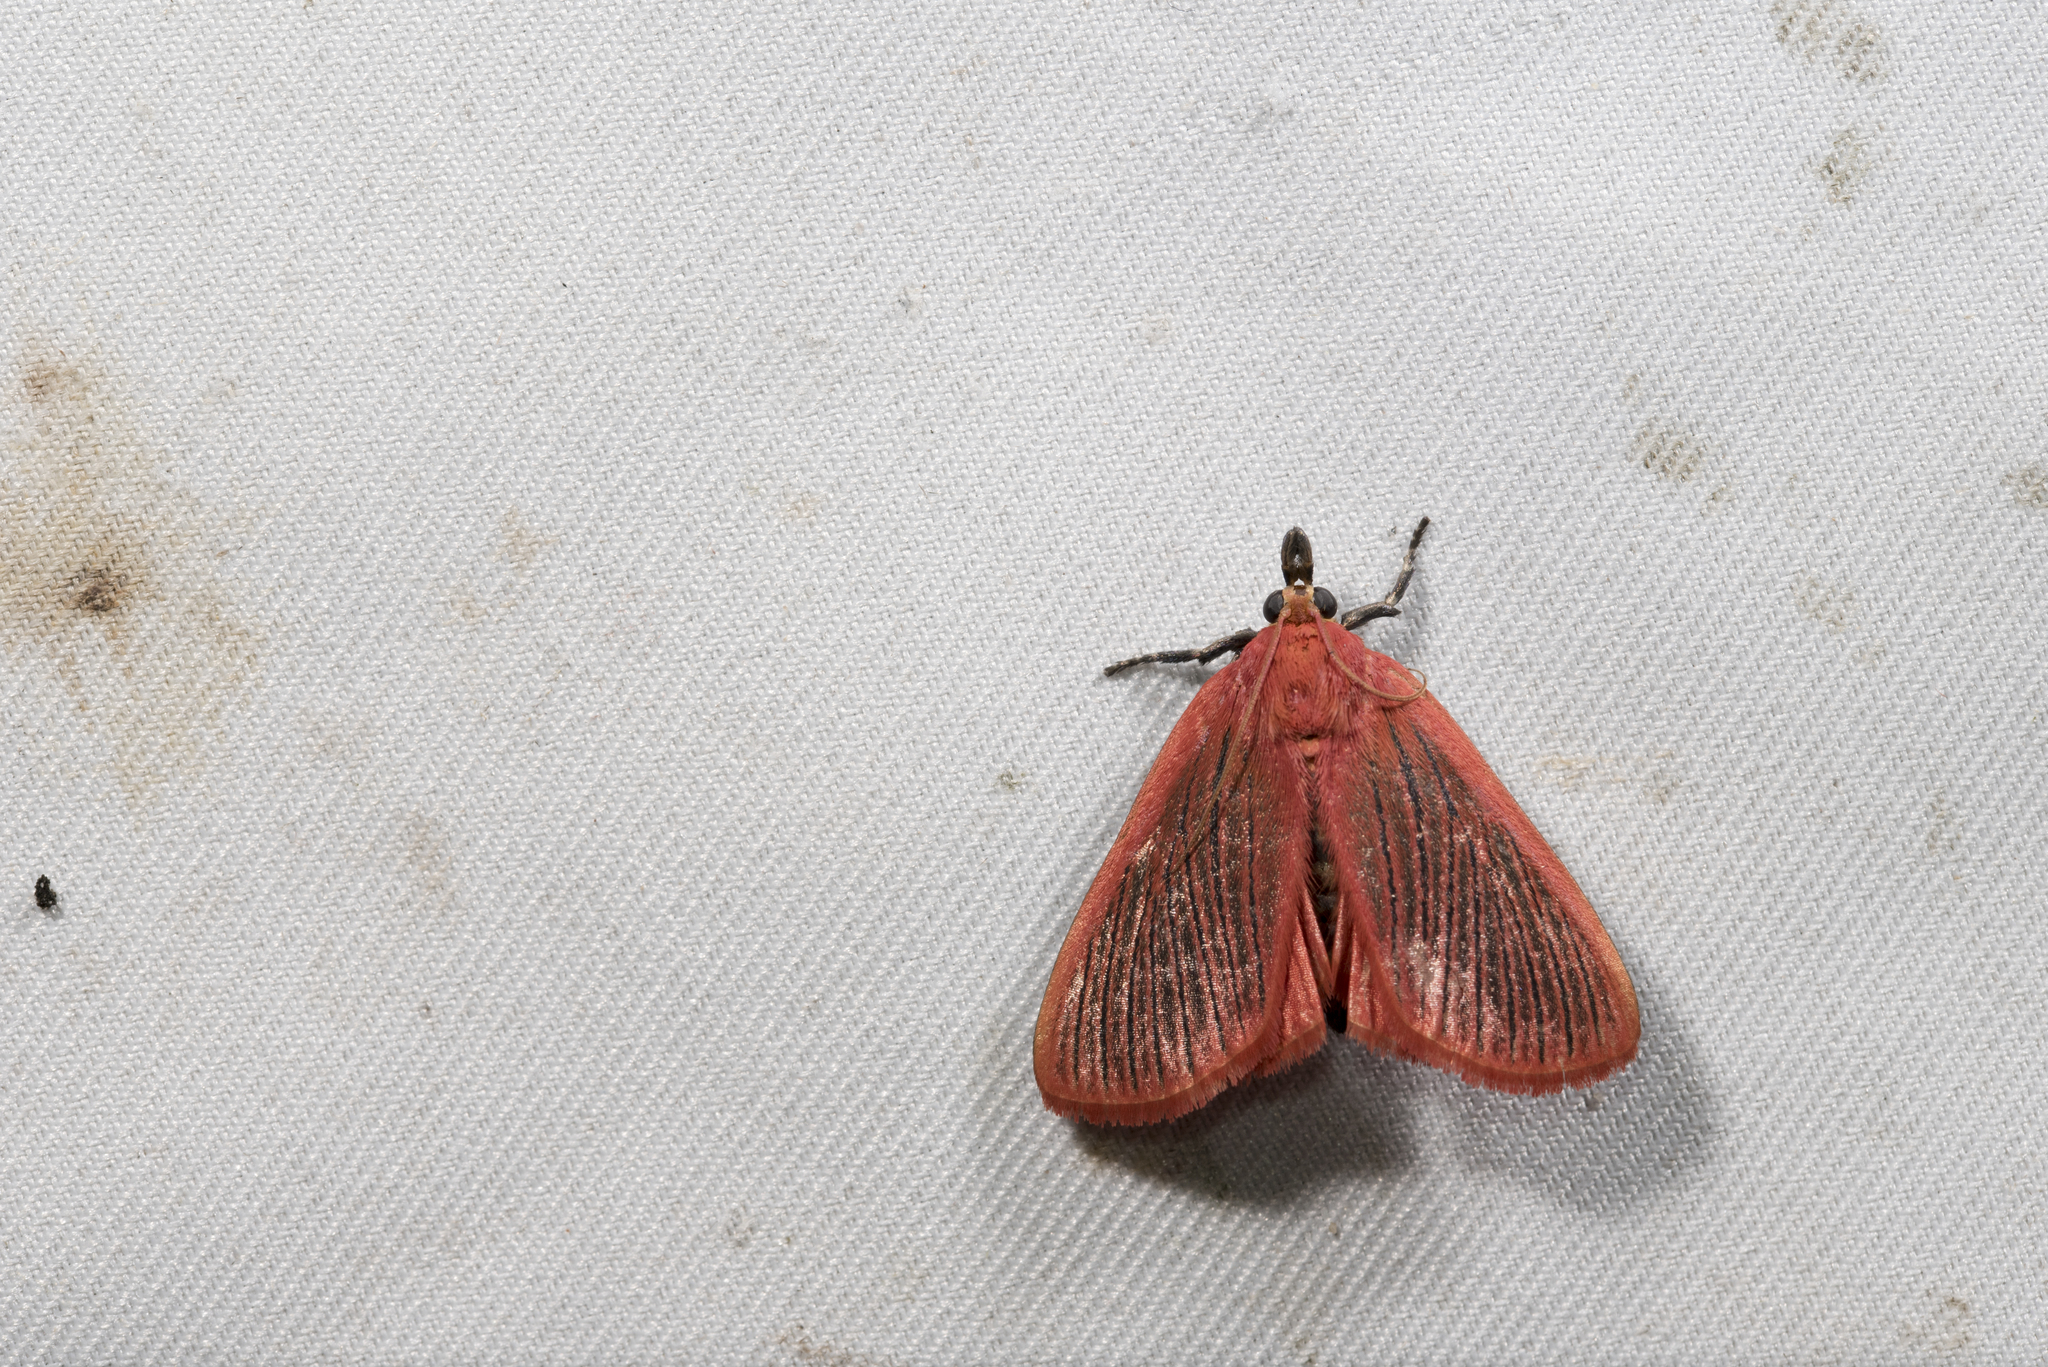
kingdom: Animalia
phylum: Arthropoda
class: Insecta
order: Lepidoptera
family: Pyralidae
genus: Arctioblepsis
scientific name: Arctioblepsis rubida
